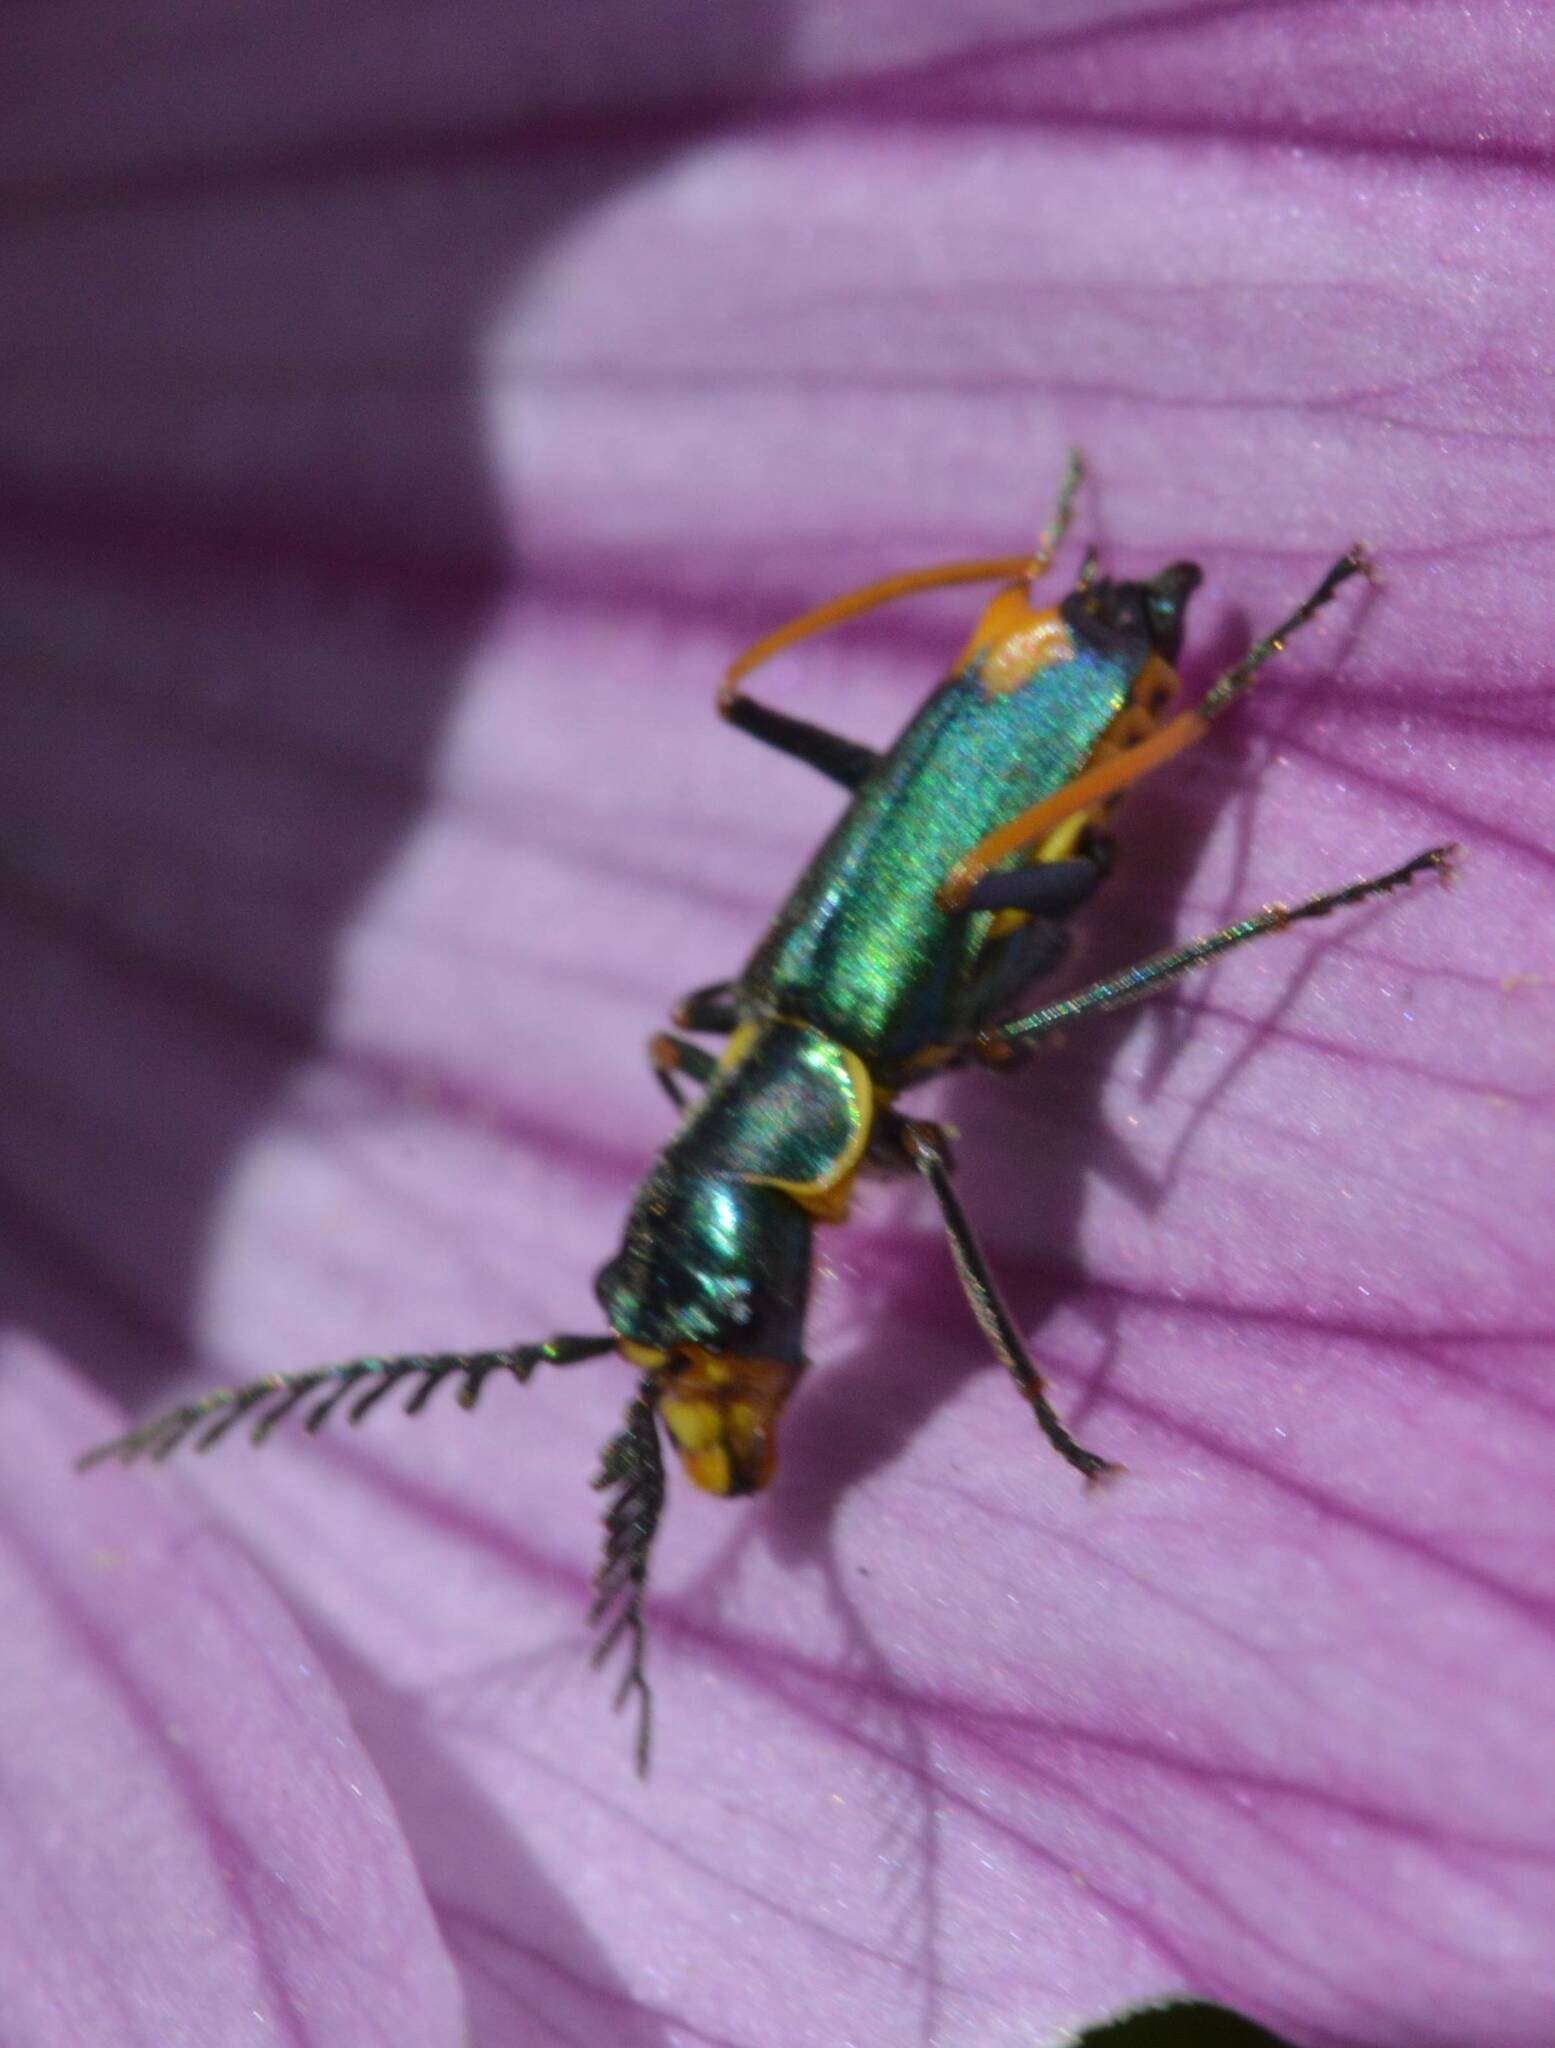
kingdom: Animalia
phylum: Arthropoda
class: Insecta
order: Coleoptera
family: Malachiidae
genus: Clanoptilus
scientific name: Clanoptilus
